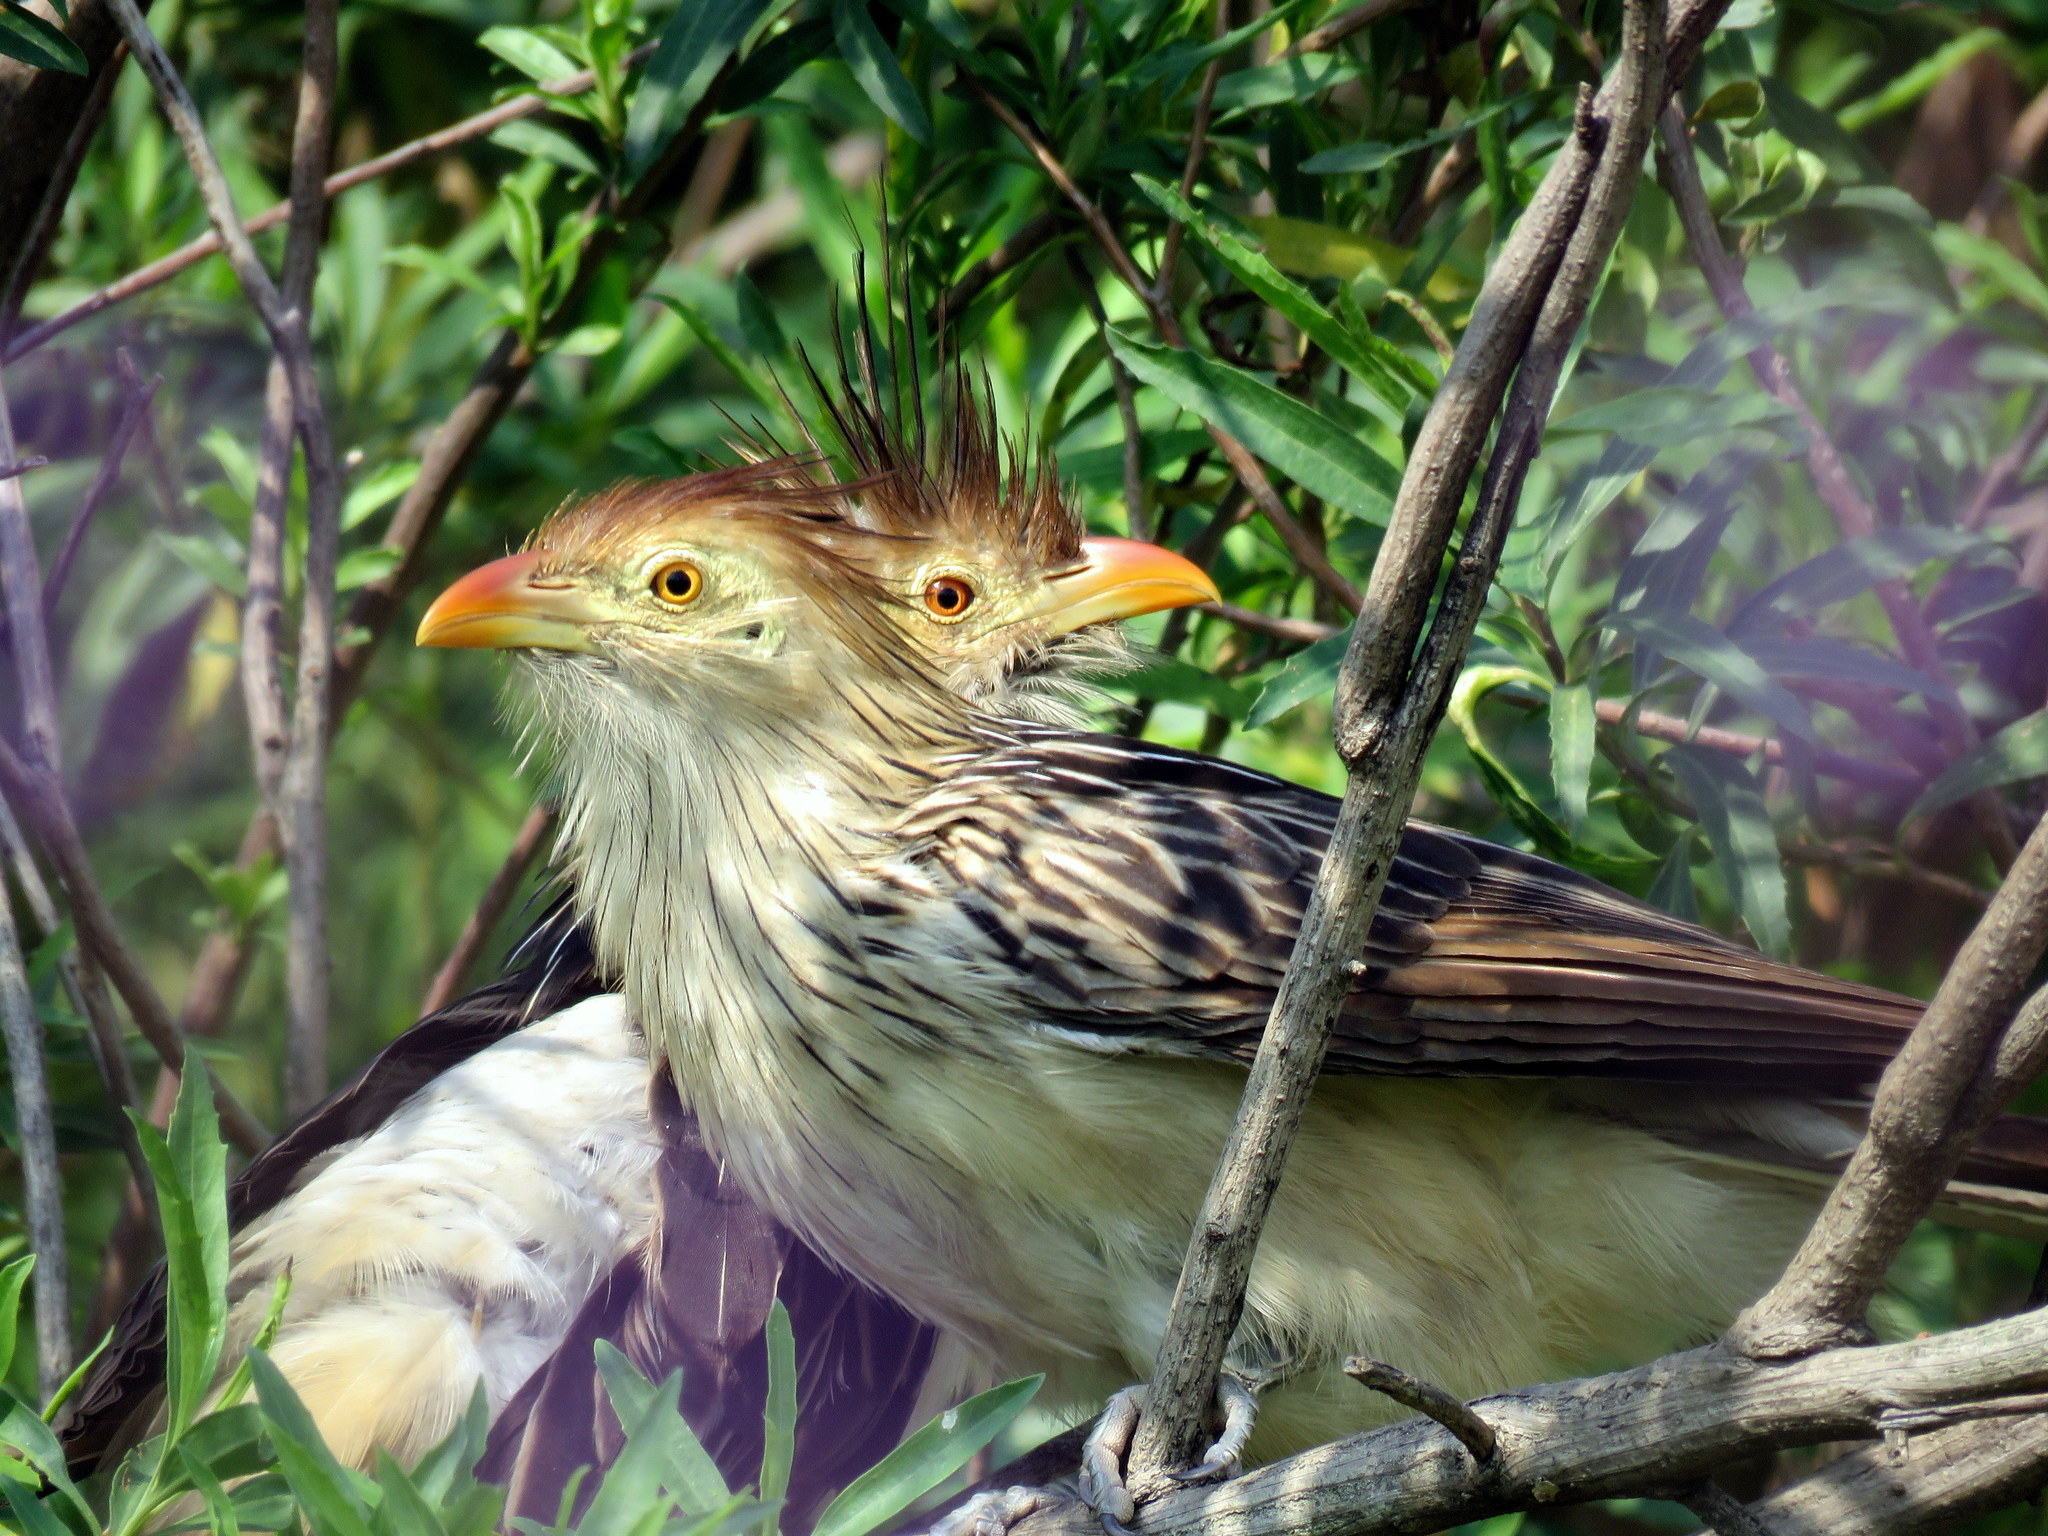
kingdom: Animalia
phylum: Chordata
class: Aves
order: Cuculiformes
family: Cuculidae
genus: Guira
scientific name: Guira guira
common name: Guira cuckoo
